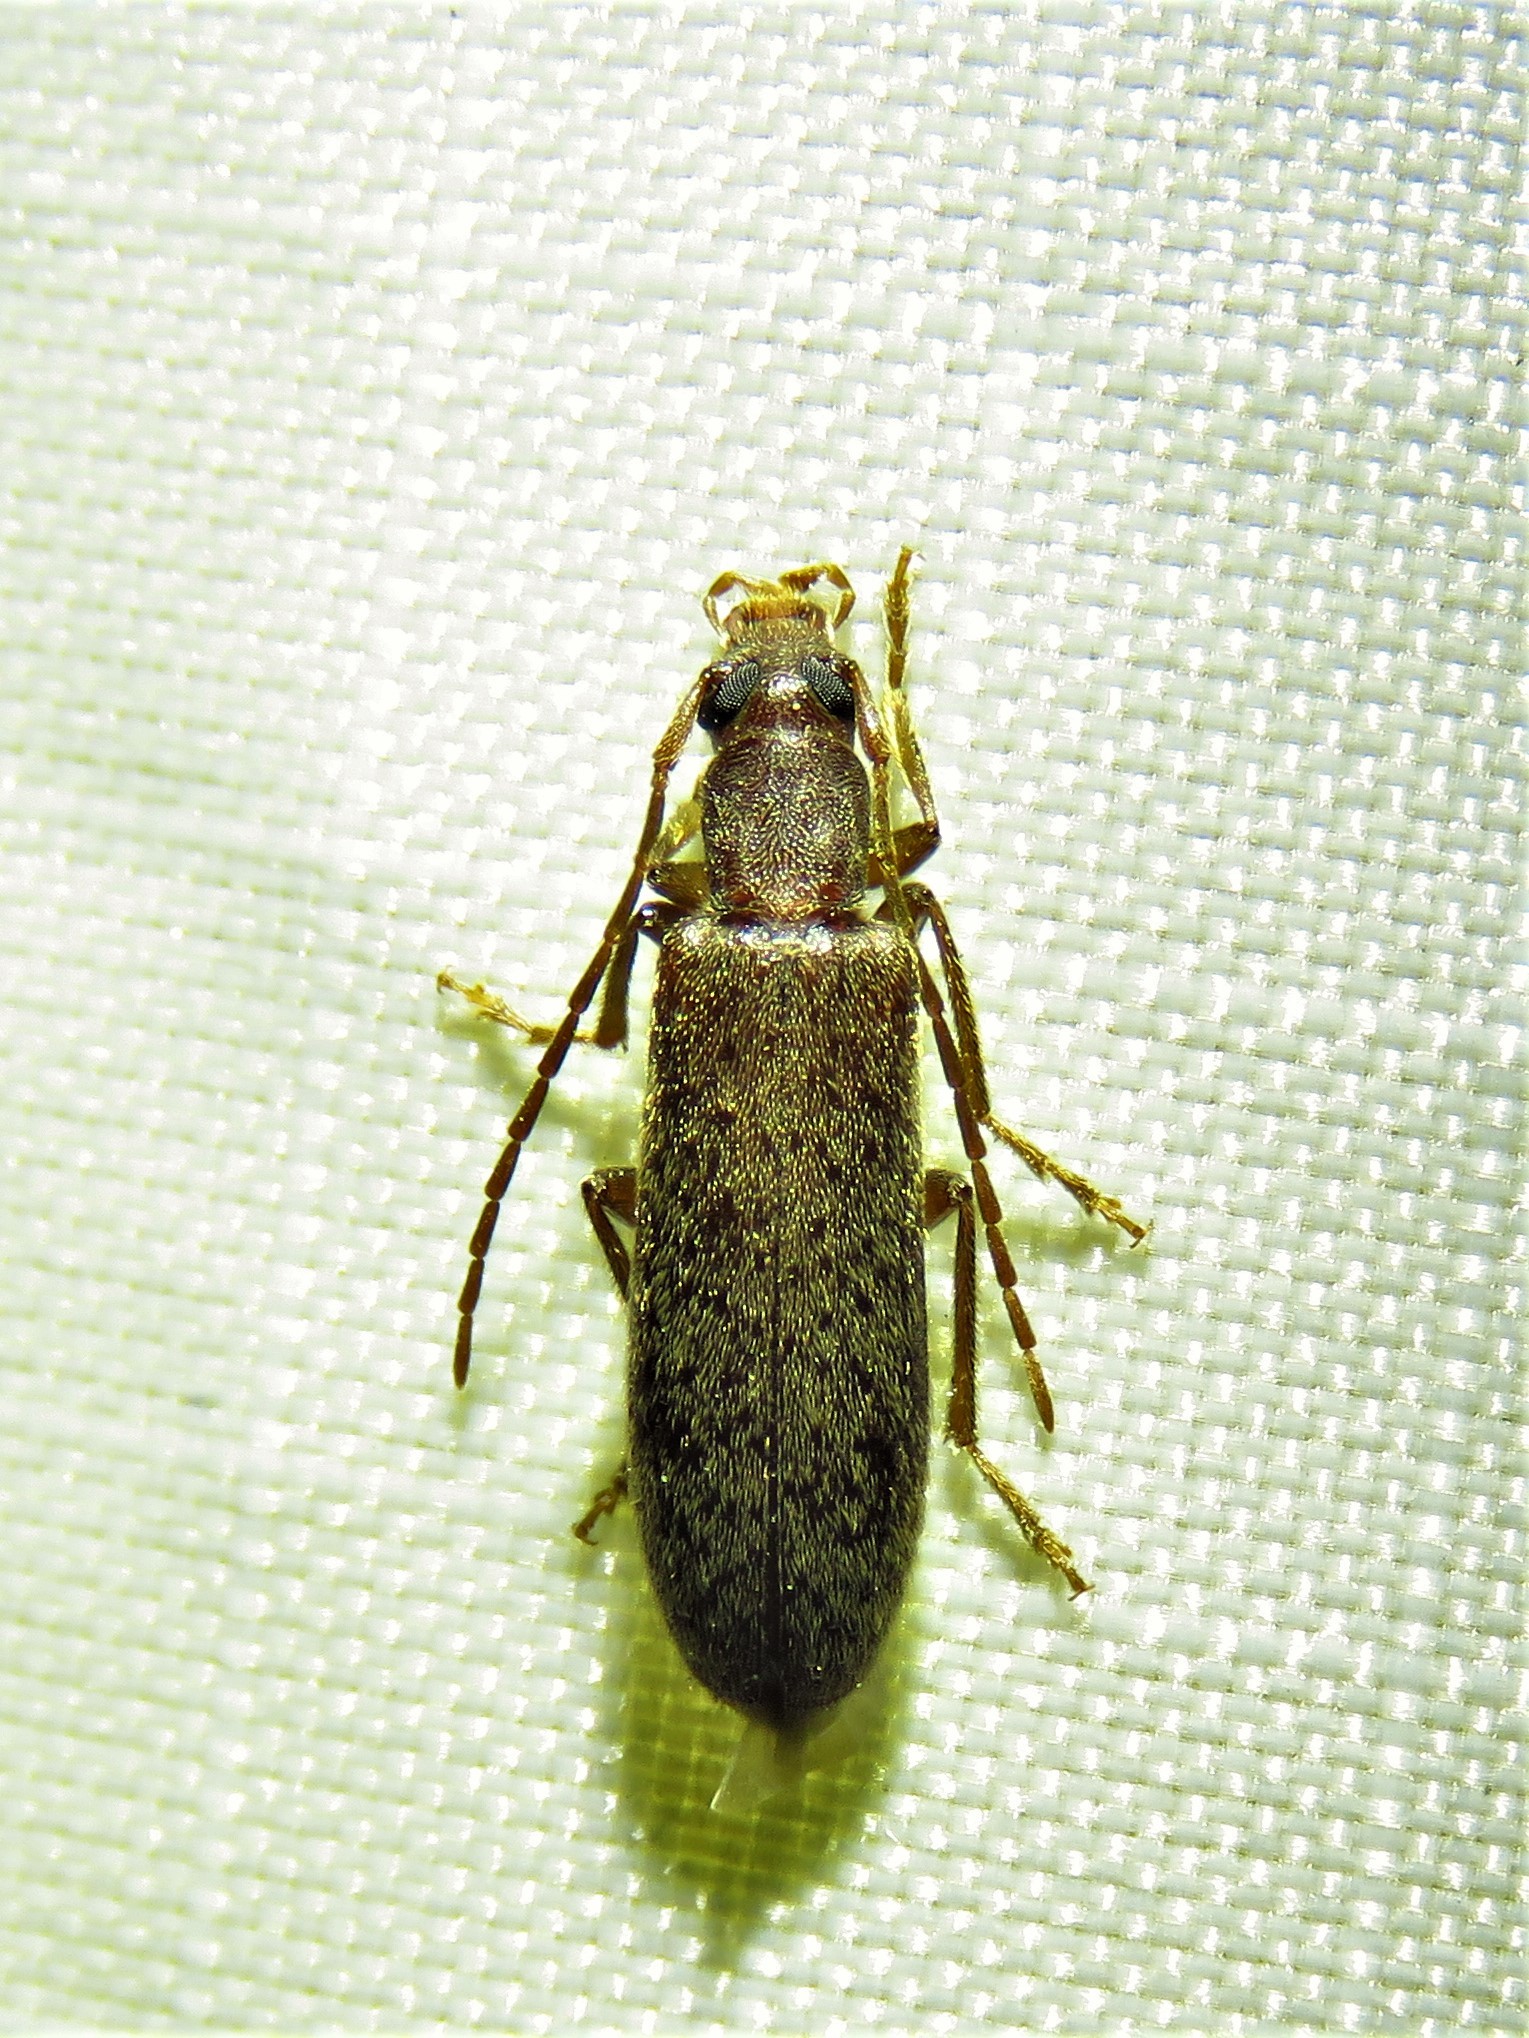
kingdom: Animalia
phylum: Arthropoda
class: Insecta
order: Coleoptera
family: Oedemeridae
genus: Sparedrus
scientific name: Sparedrus aspersus
